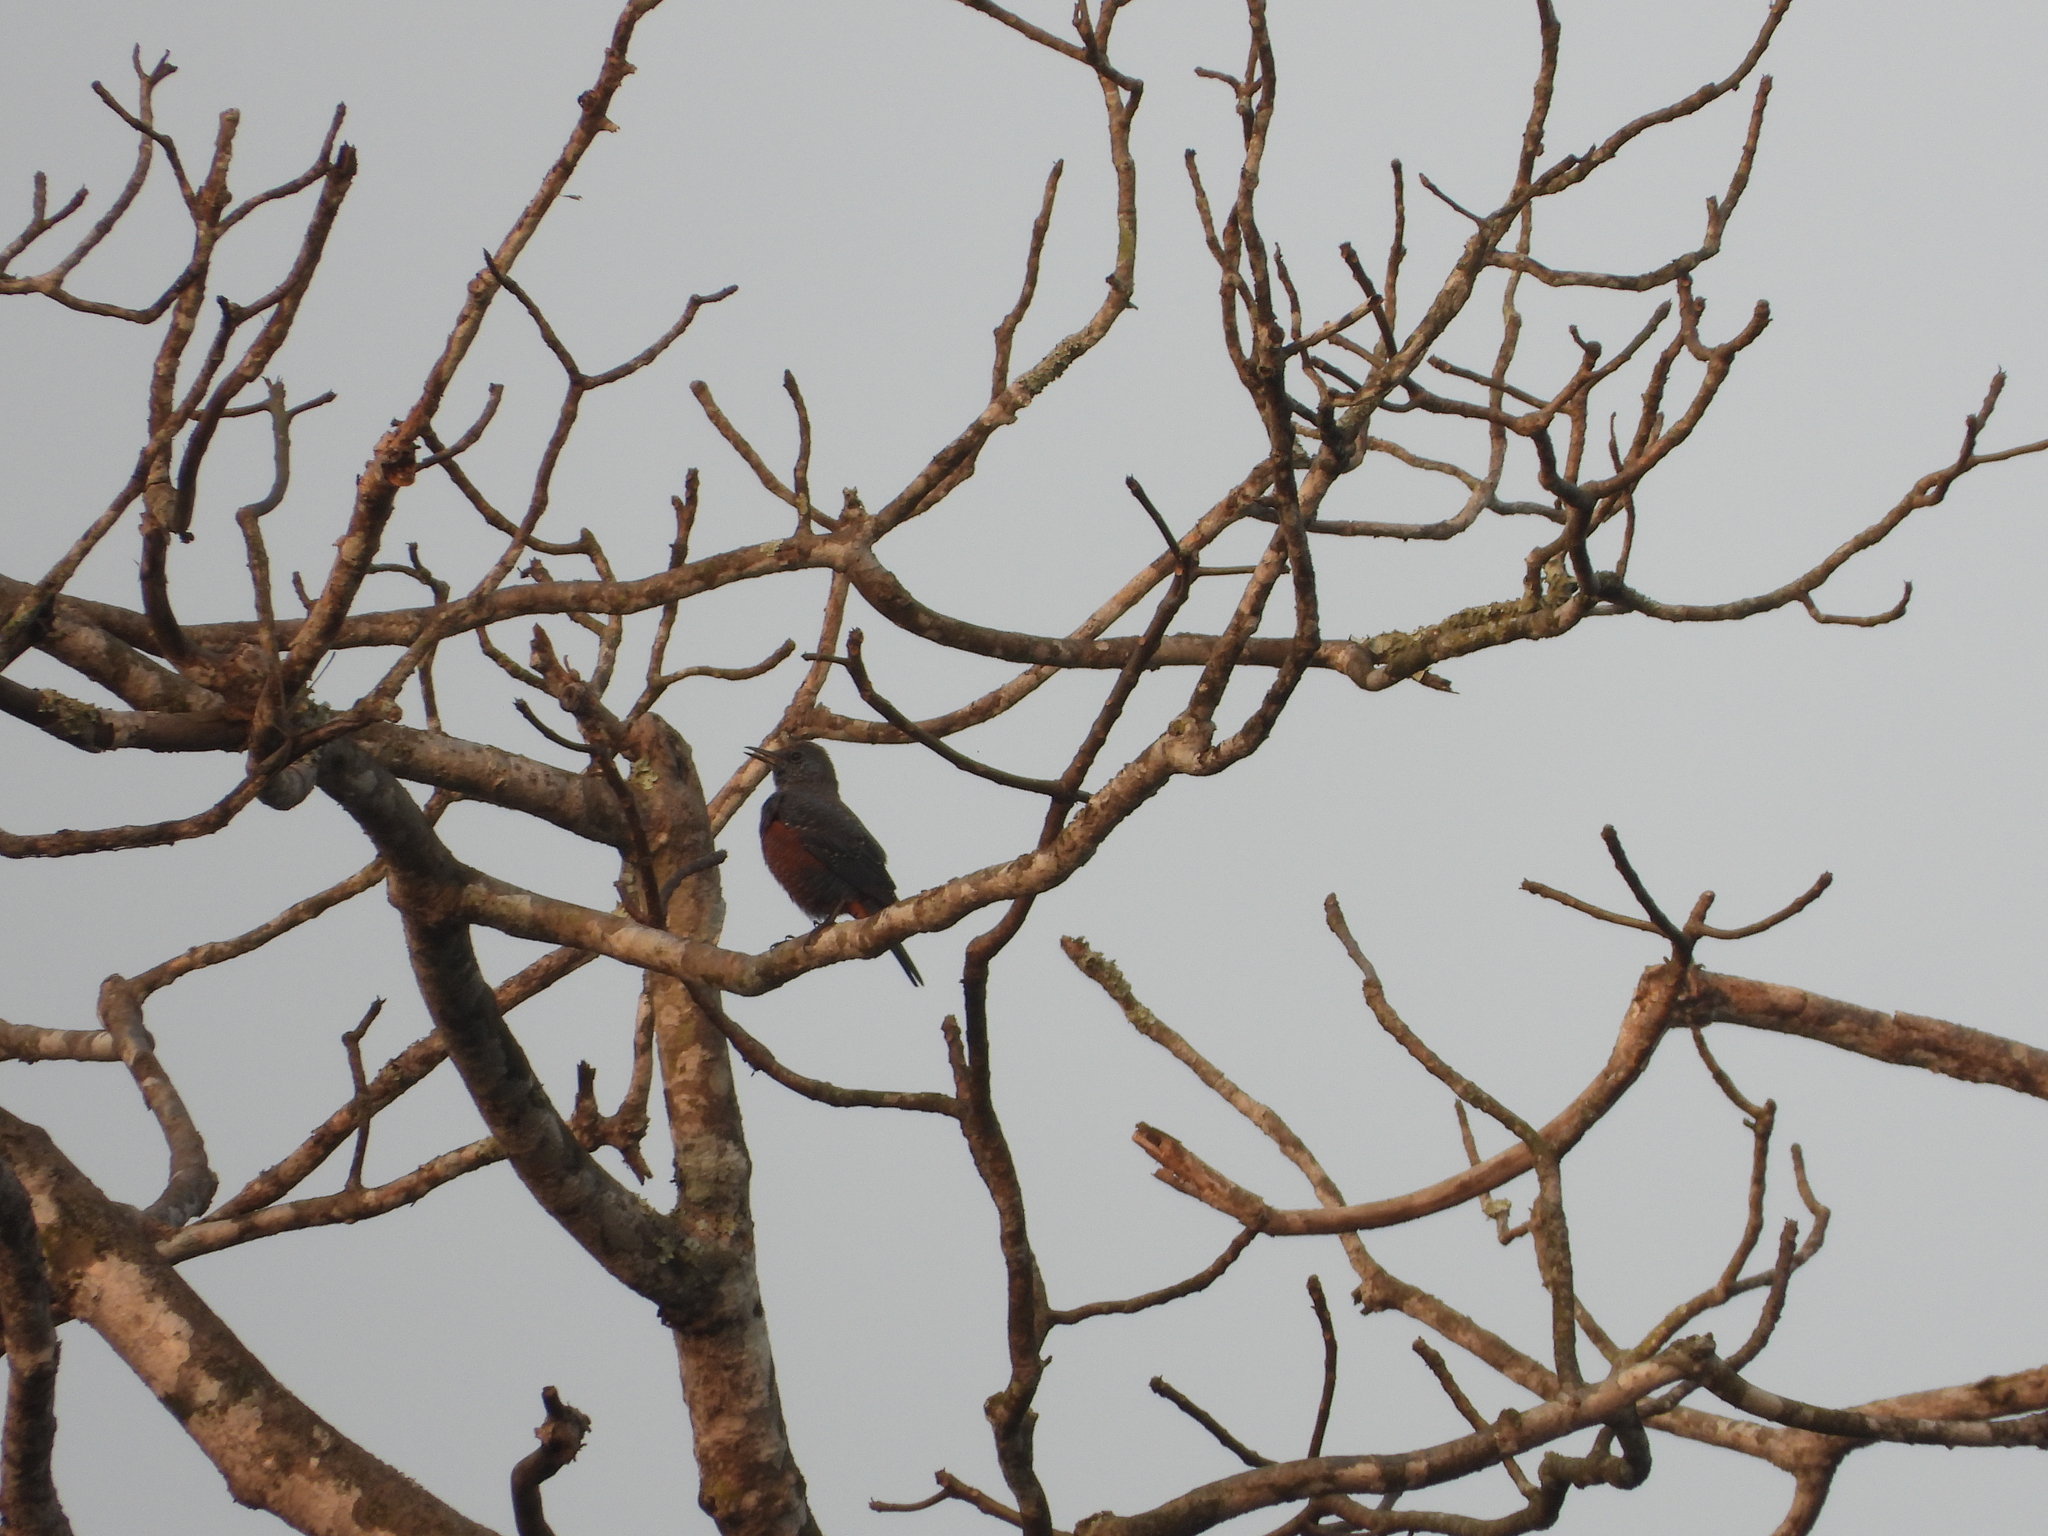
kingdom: Animalia
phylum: Chordata
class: Aves
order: Passeriformes
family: Muscicapidae
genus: Monticola
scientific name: Monticola solitarius
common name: Blue rock thrush
